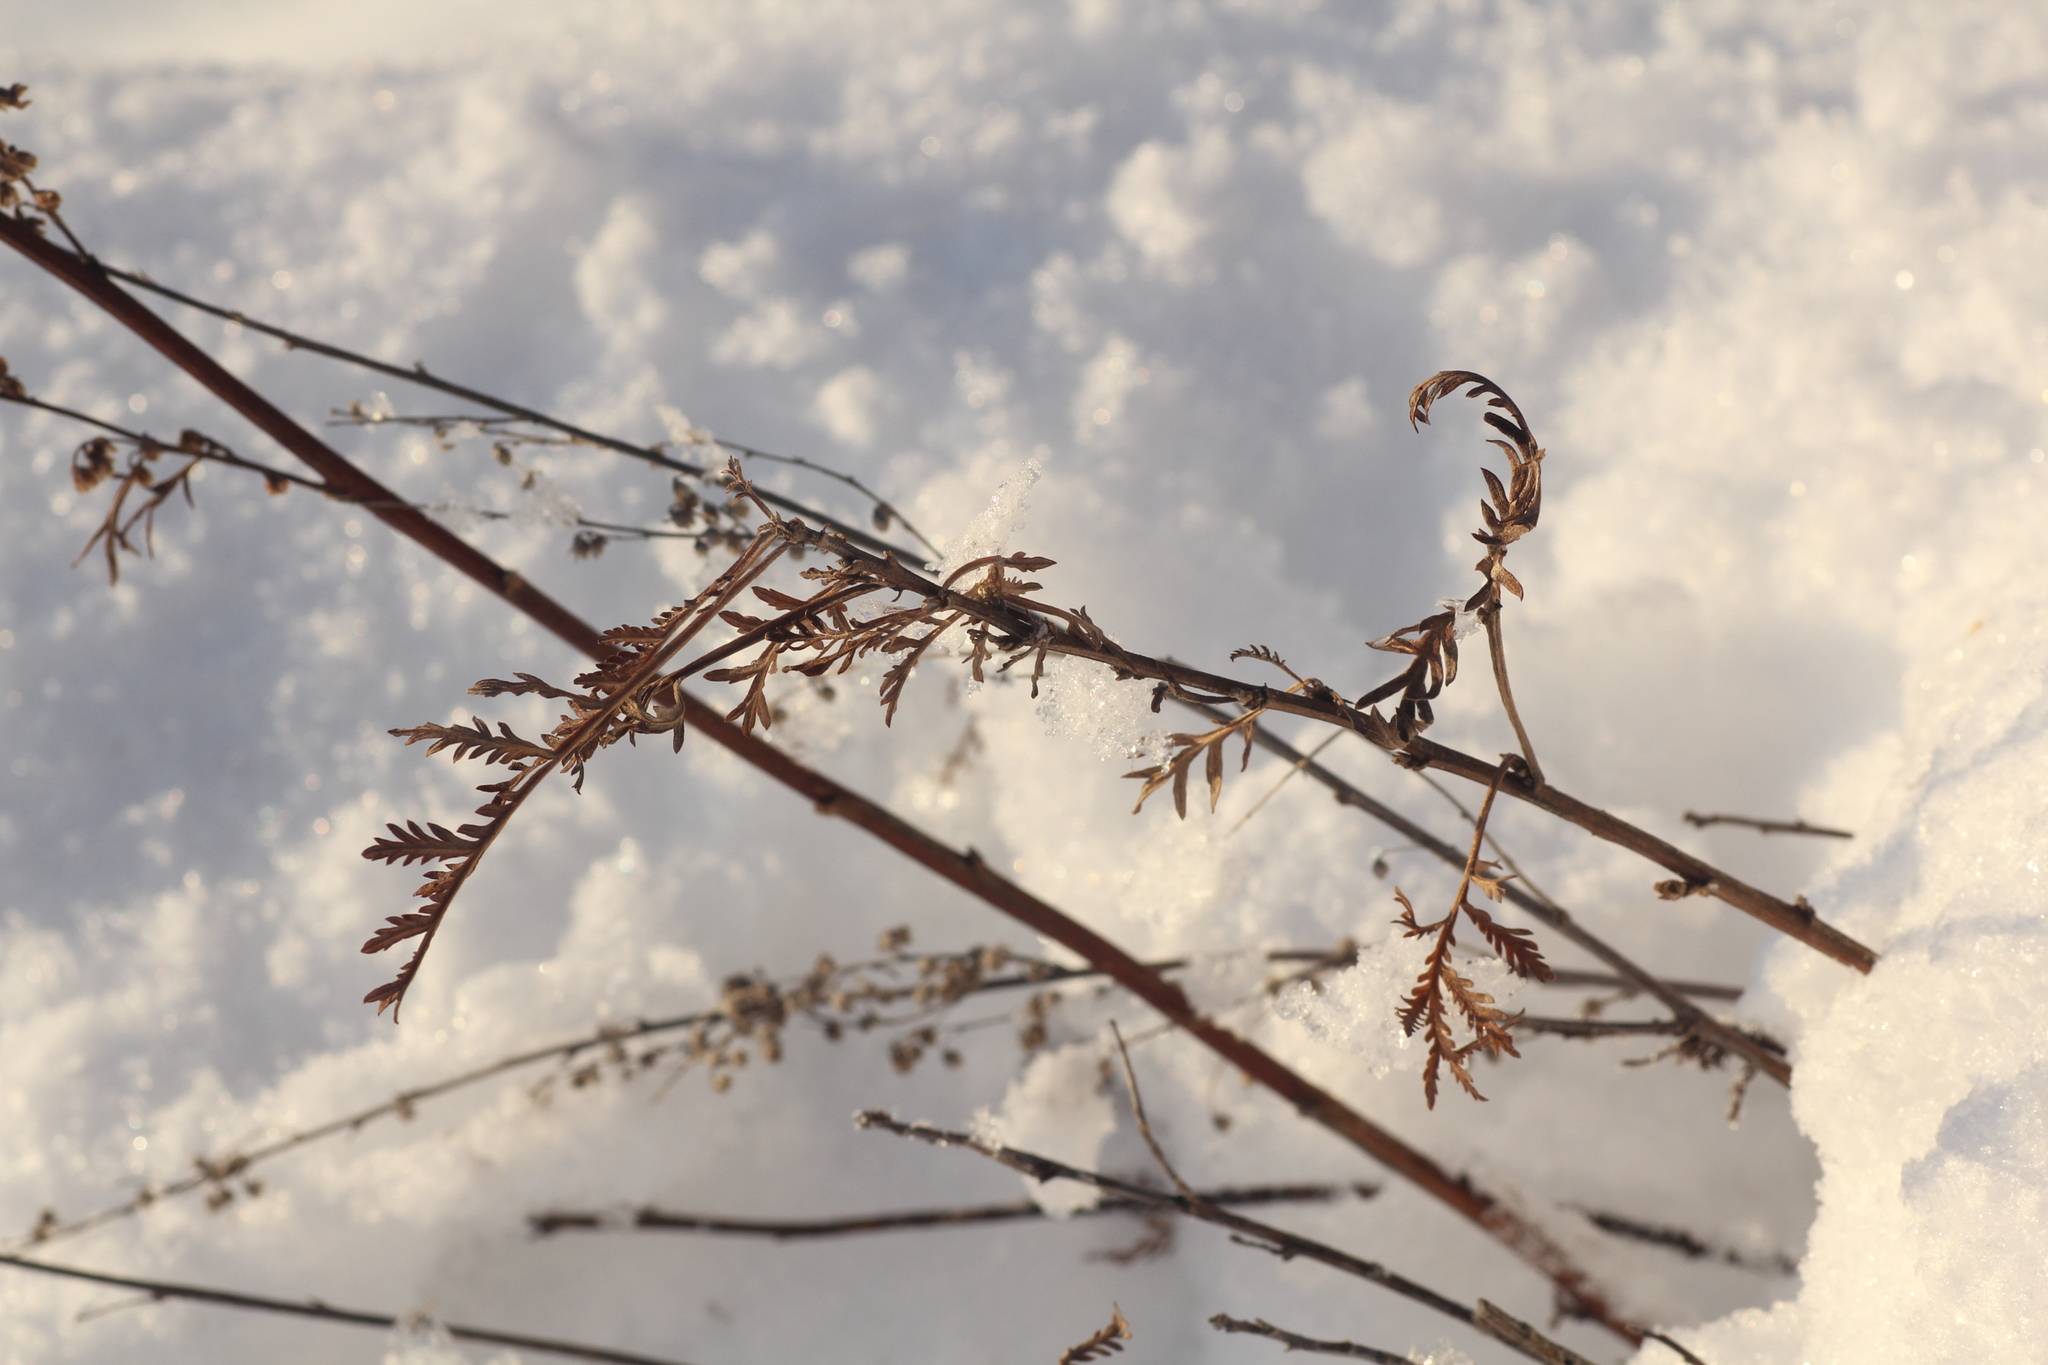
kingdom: Plantae
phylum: Tracheophyta
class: Magnoliopsida
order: Asterales
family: Asteraceae
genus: Artemisia
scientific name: Artemisia gmelinii
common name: Gmelin's wormwood
